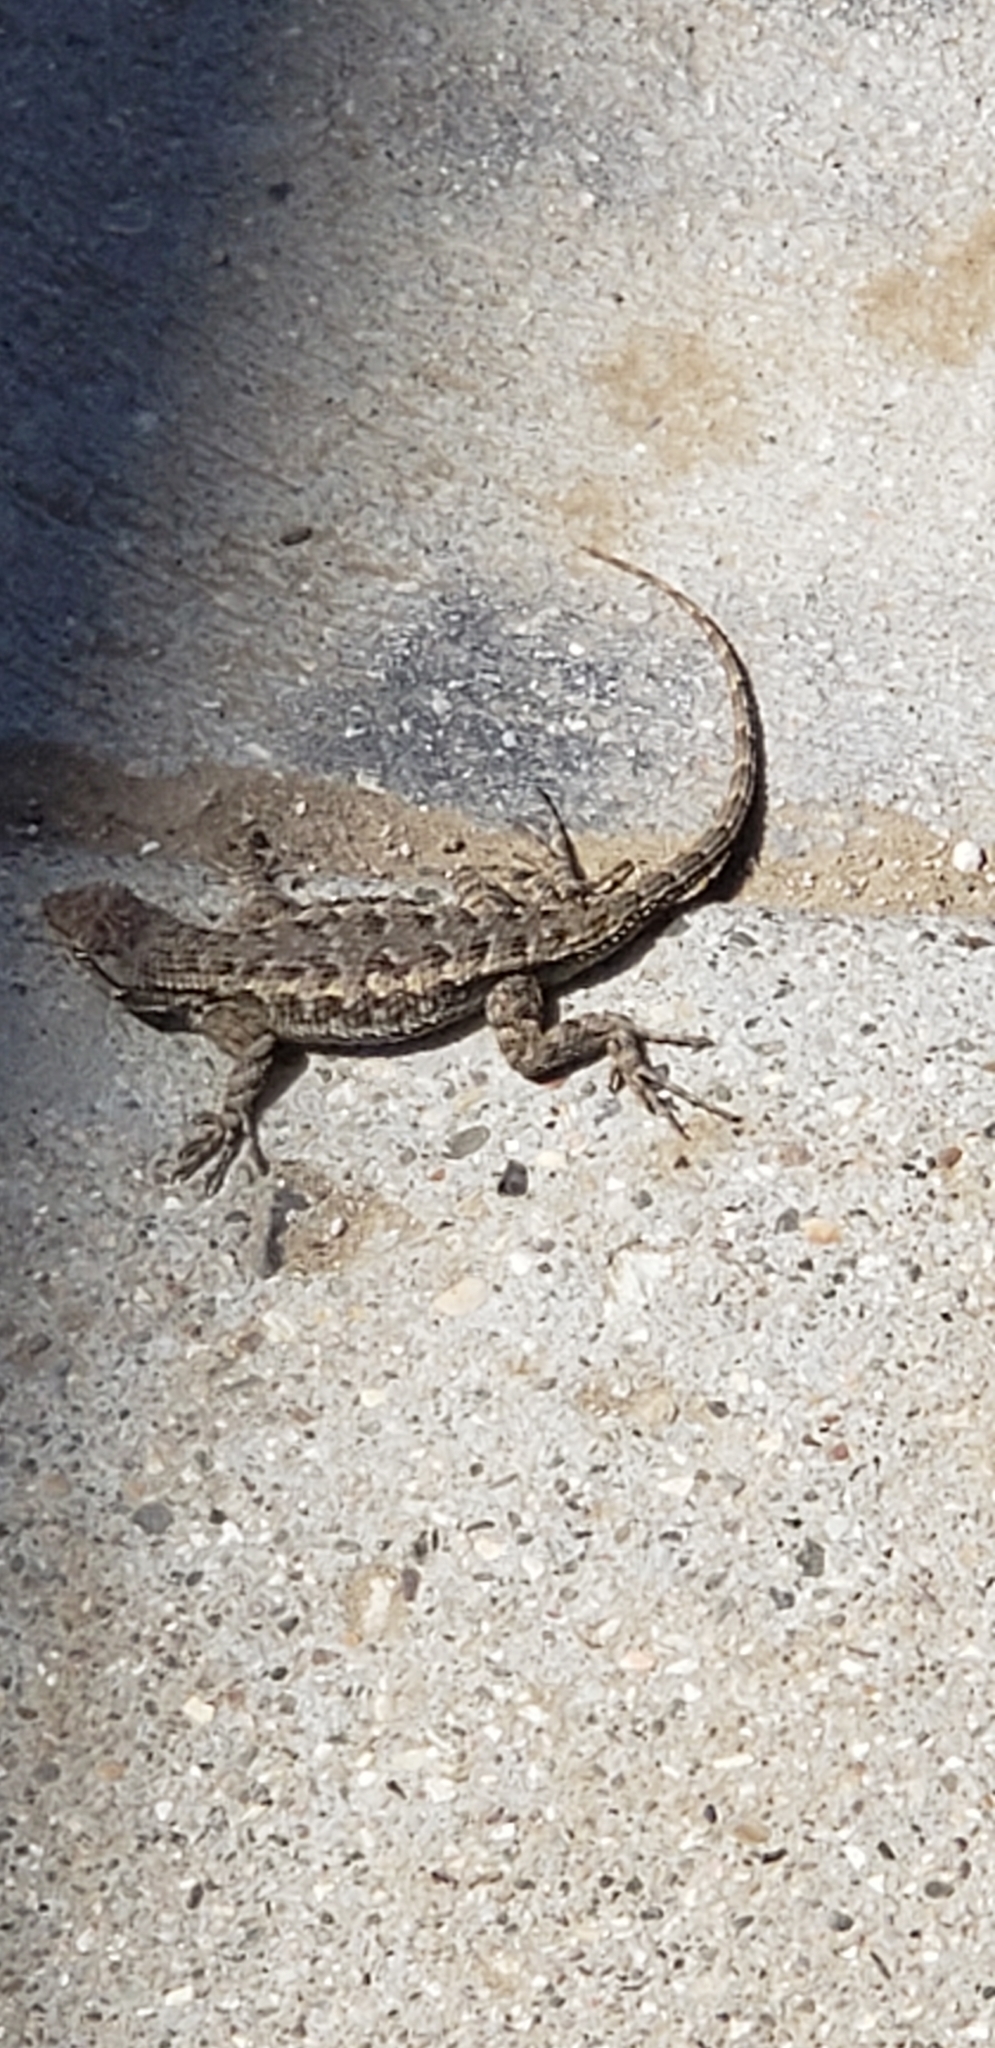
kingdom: Animalia
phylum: Chordata
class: Squamata
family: Phrynosomatidae
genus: Sceloporus
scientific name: Sceloporus occidentalis
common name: Western fence lizard
